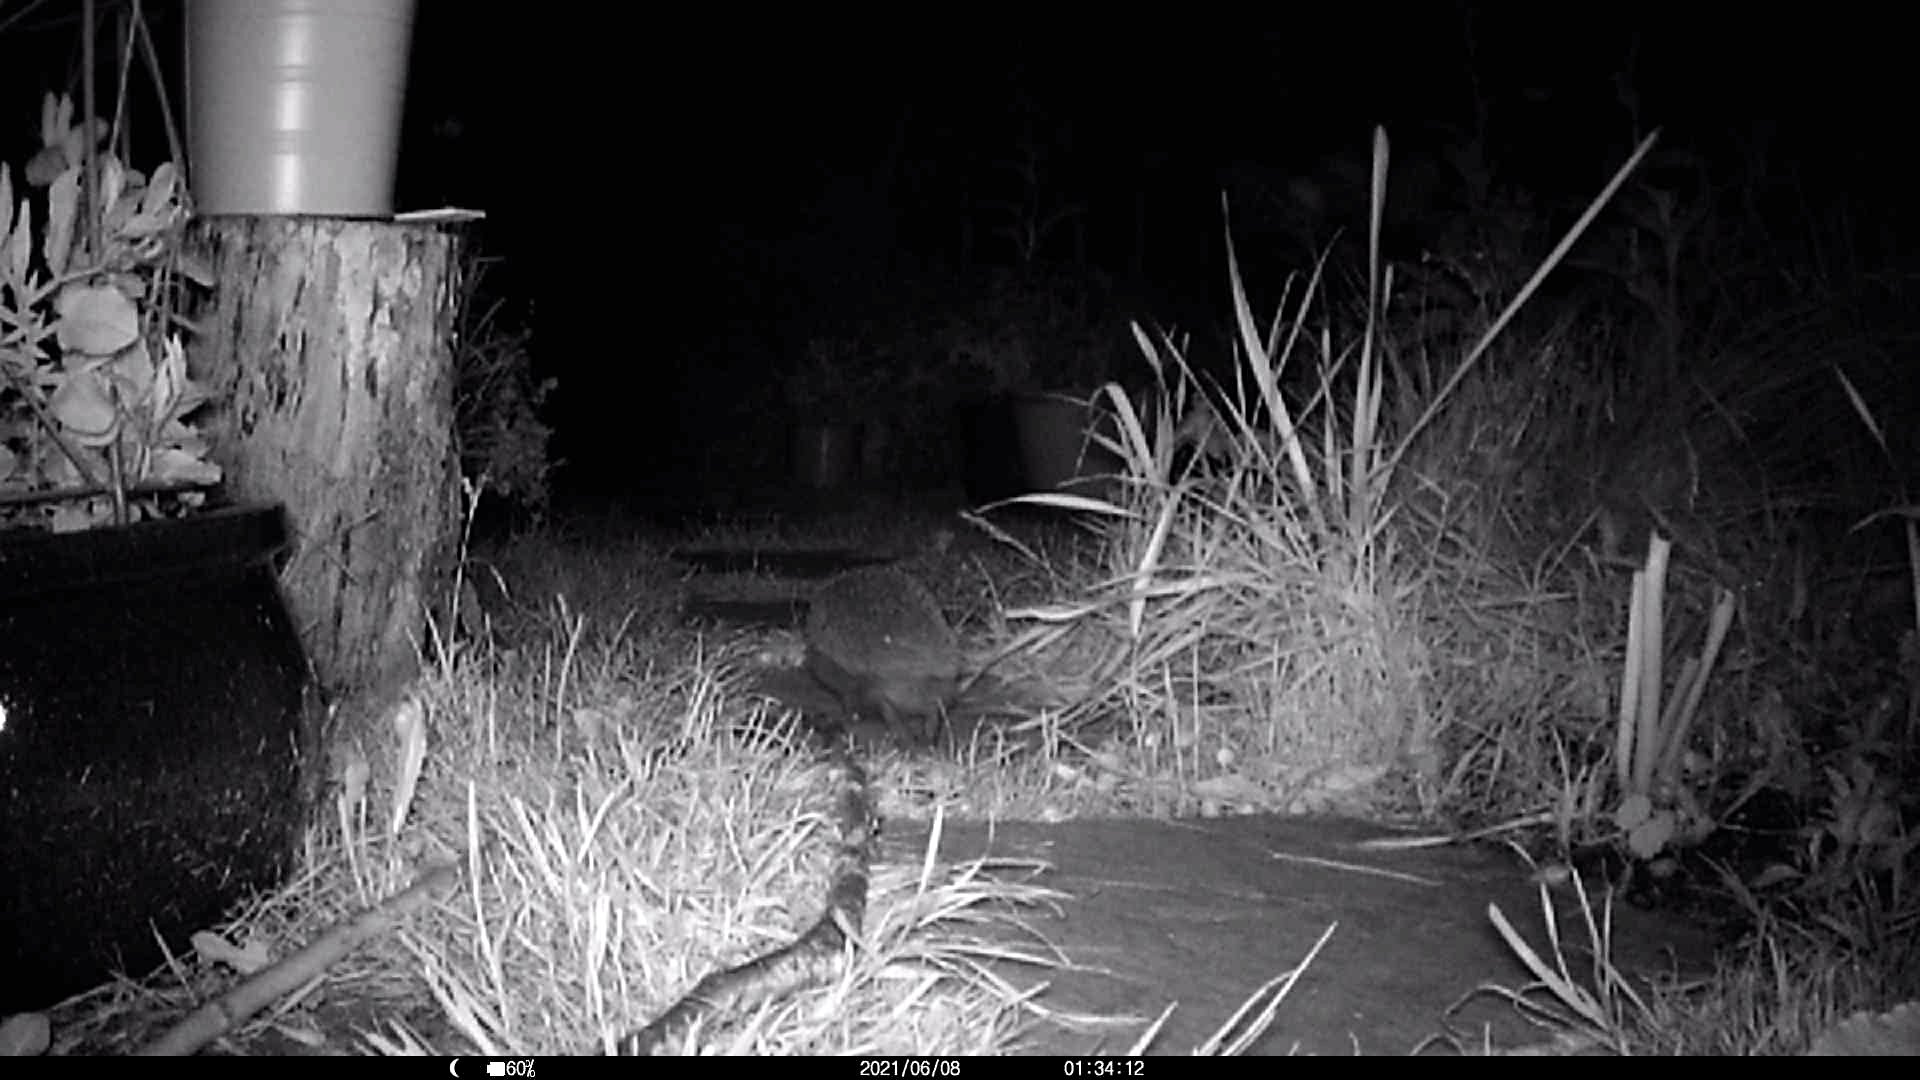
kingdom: Animalia
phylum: Chordata
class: Mammalia
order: Erinaceomorpha
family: Erinaceidae
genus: Erinaceus
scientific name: Erinaceus europaeus
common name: West european hedgehog
